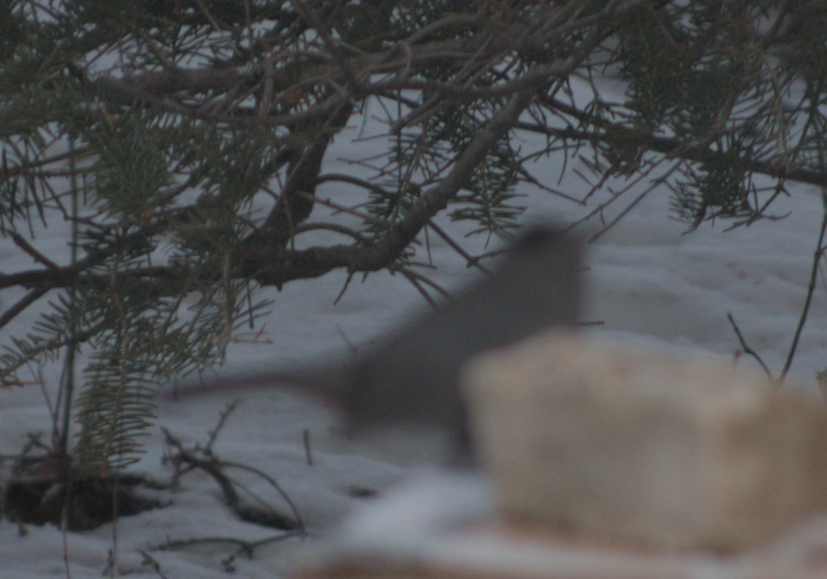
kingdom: Animalia
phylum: Chordata
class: Aves
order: Passeriformes
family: Mimidae
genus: Dumetella
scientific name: Dumetella carolinensis
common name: Gray catbird
